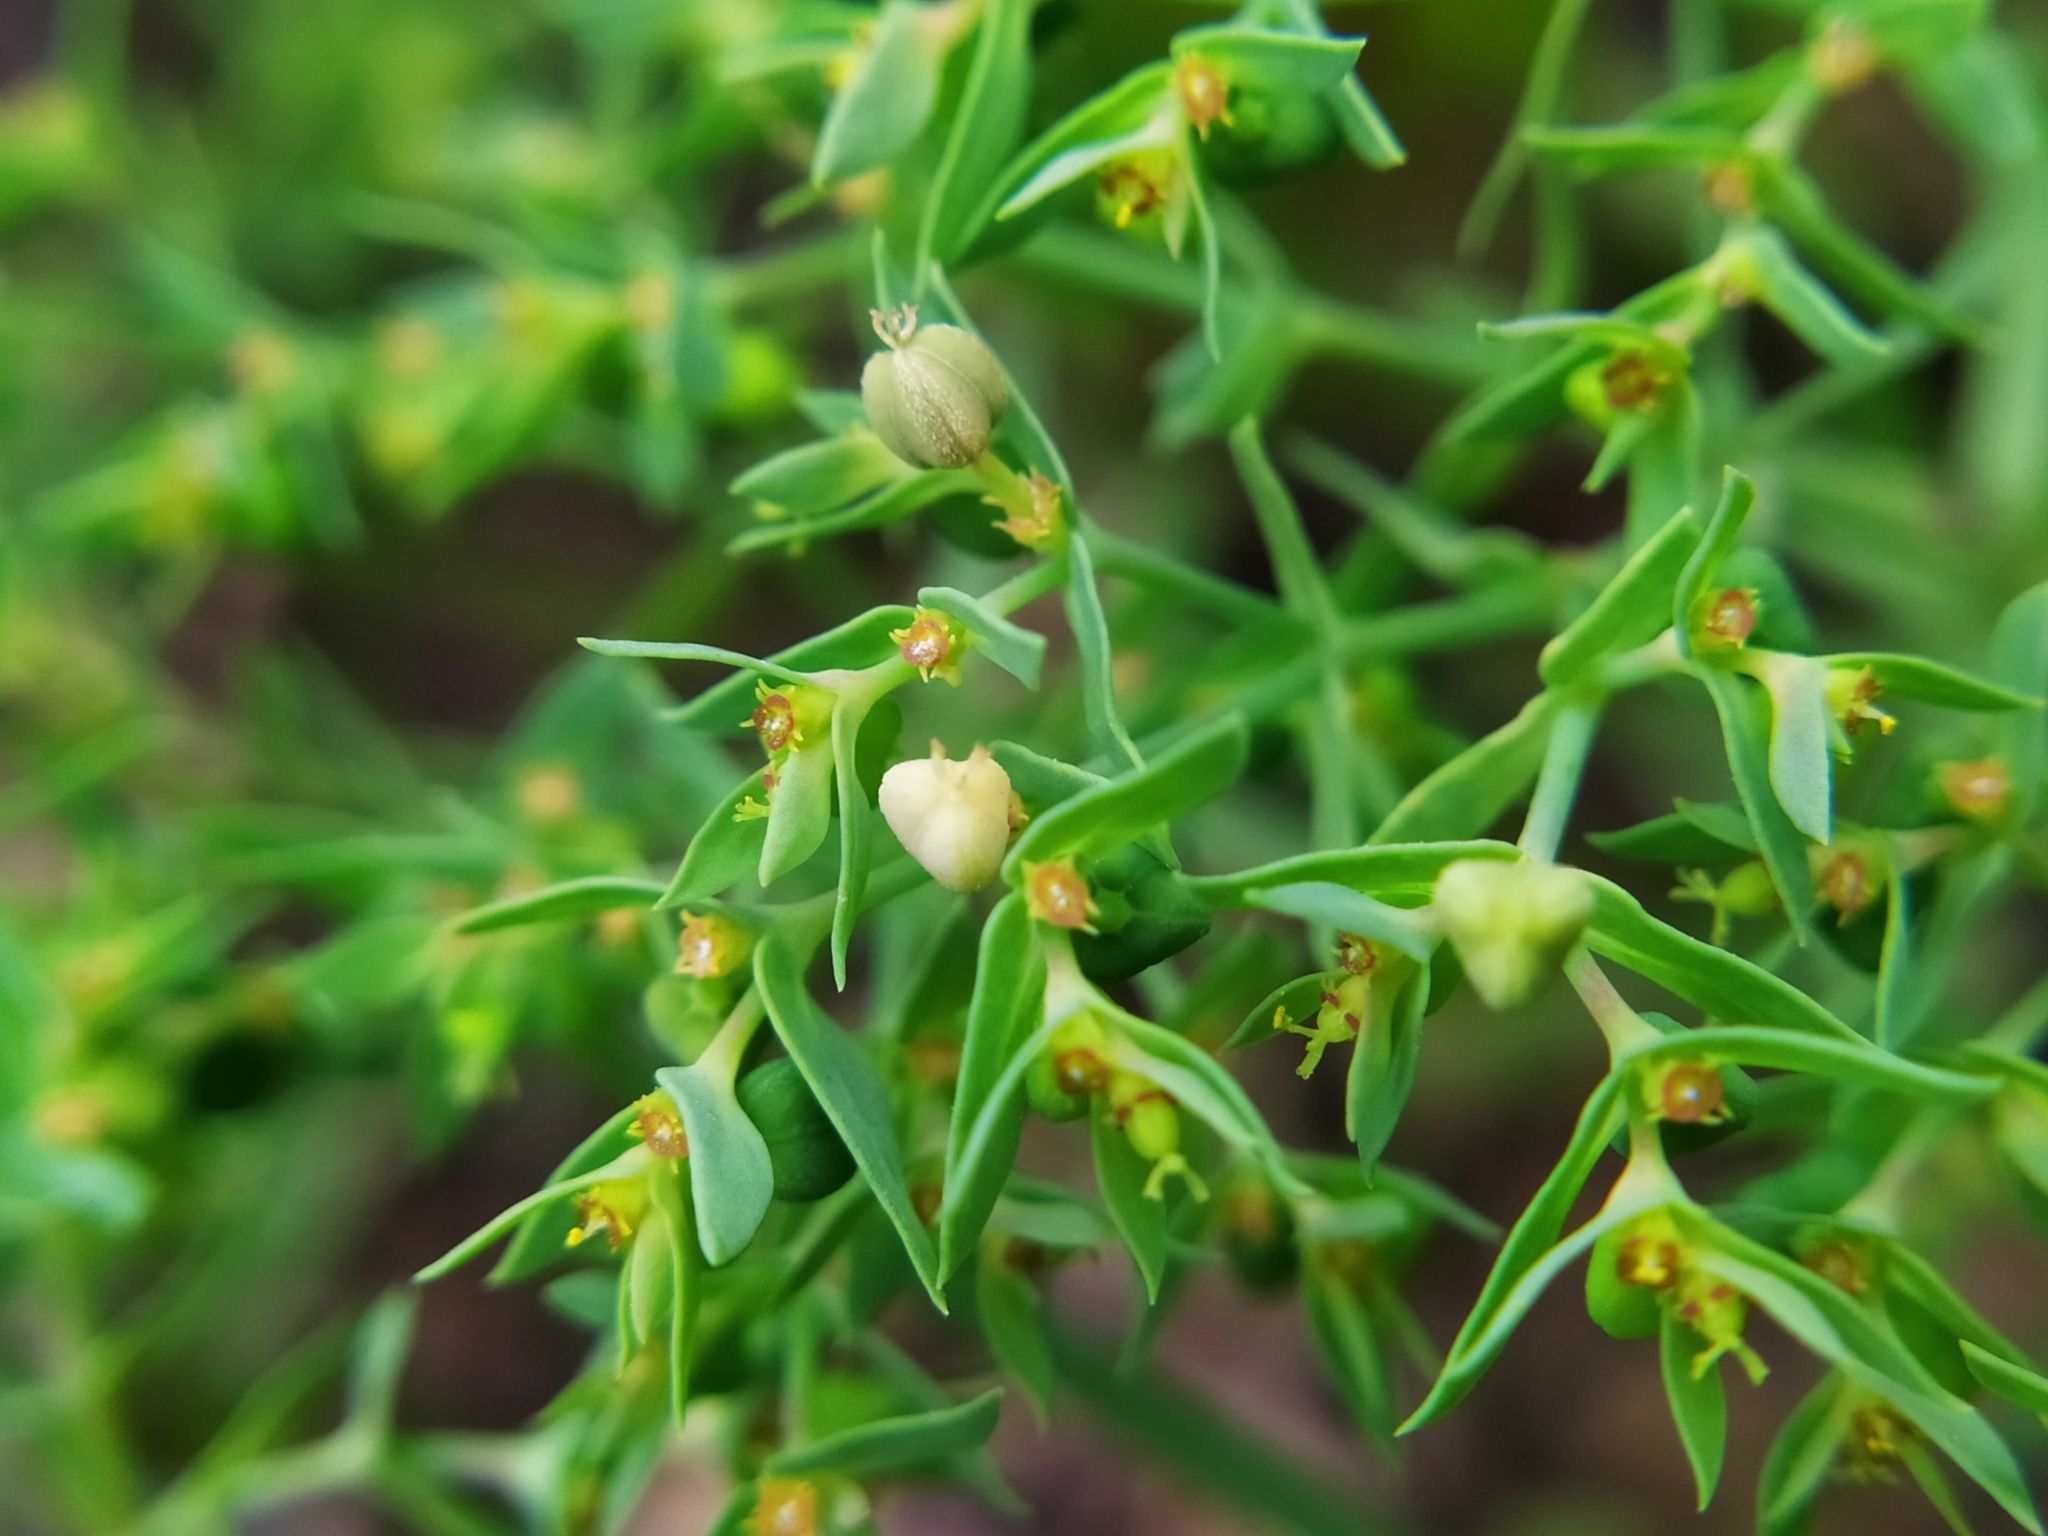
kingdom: Plantae
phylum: Tracheophyta
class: Magnoliopsida
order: Malpighiales
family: Euphorbiaceae
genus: Euphorbia
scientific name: Euphorbia exigua
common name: Dwarf spurge
